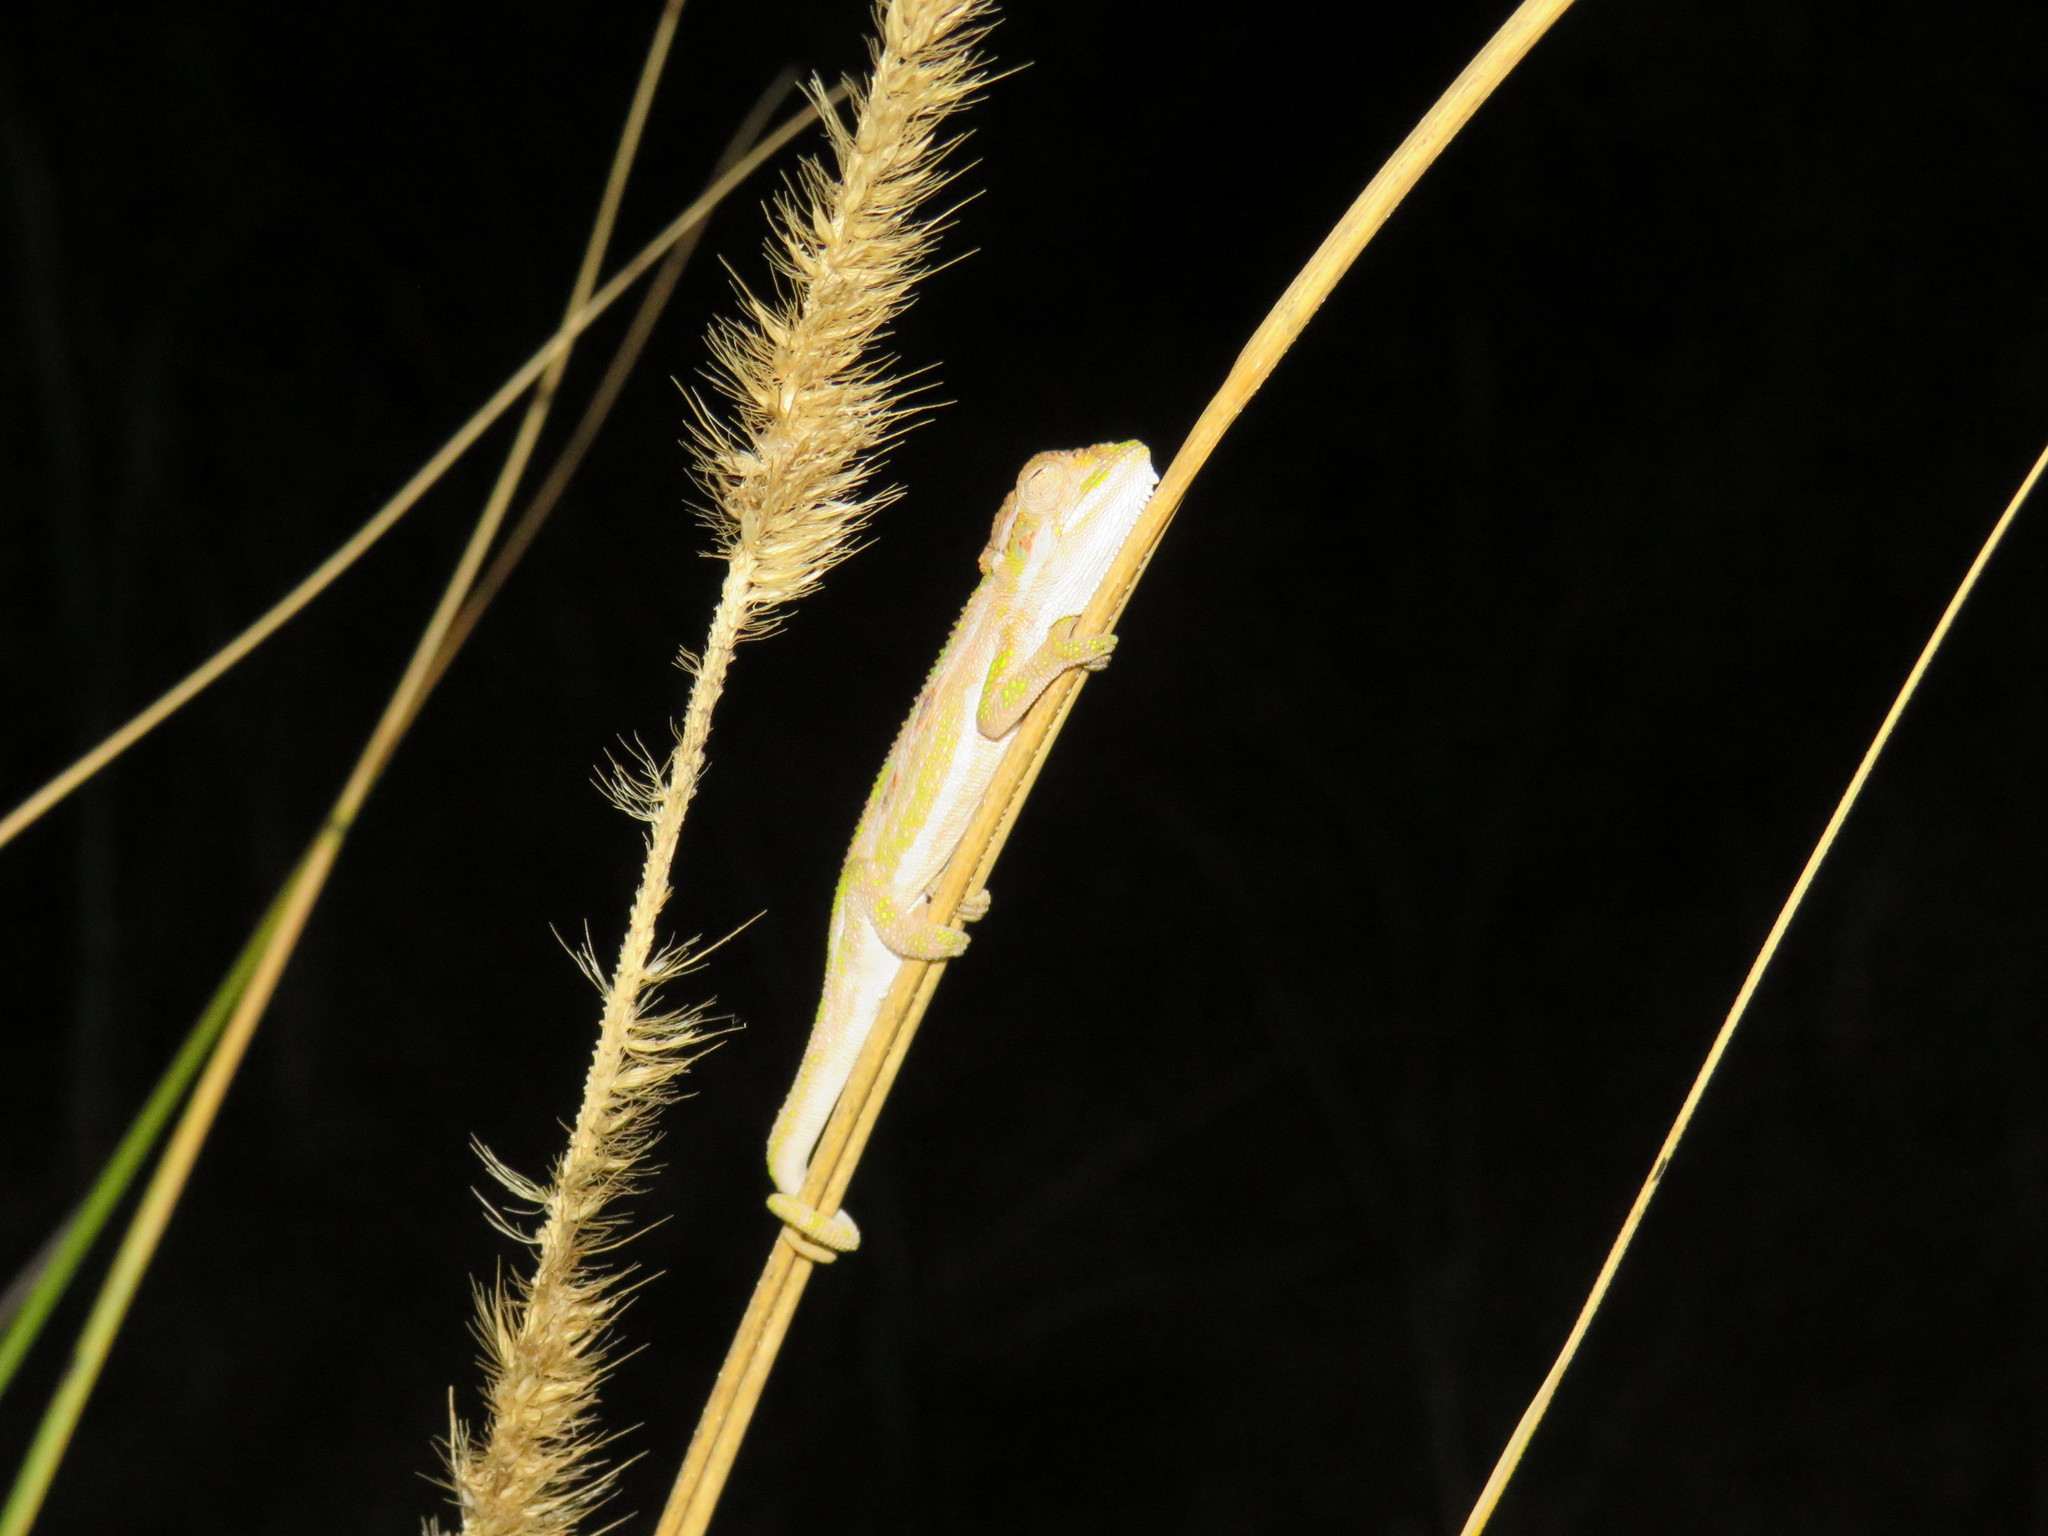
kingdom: Animalia
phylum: Chordata
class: Squamata
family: Chamaeleonidae
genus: Bradypodion
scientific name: Bradypodion pumilum
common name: Cape dwarf chameleon
